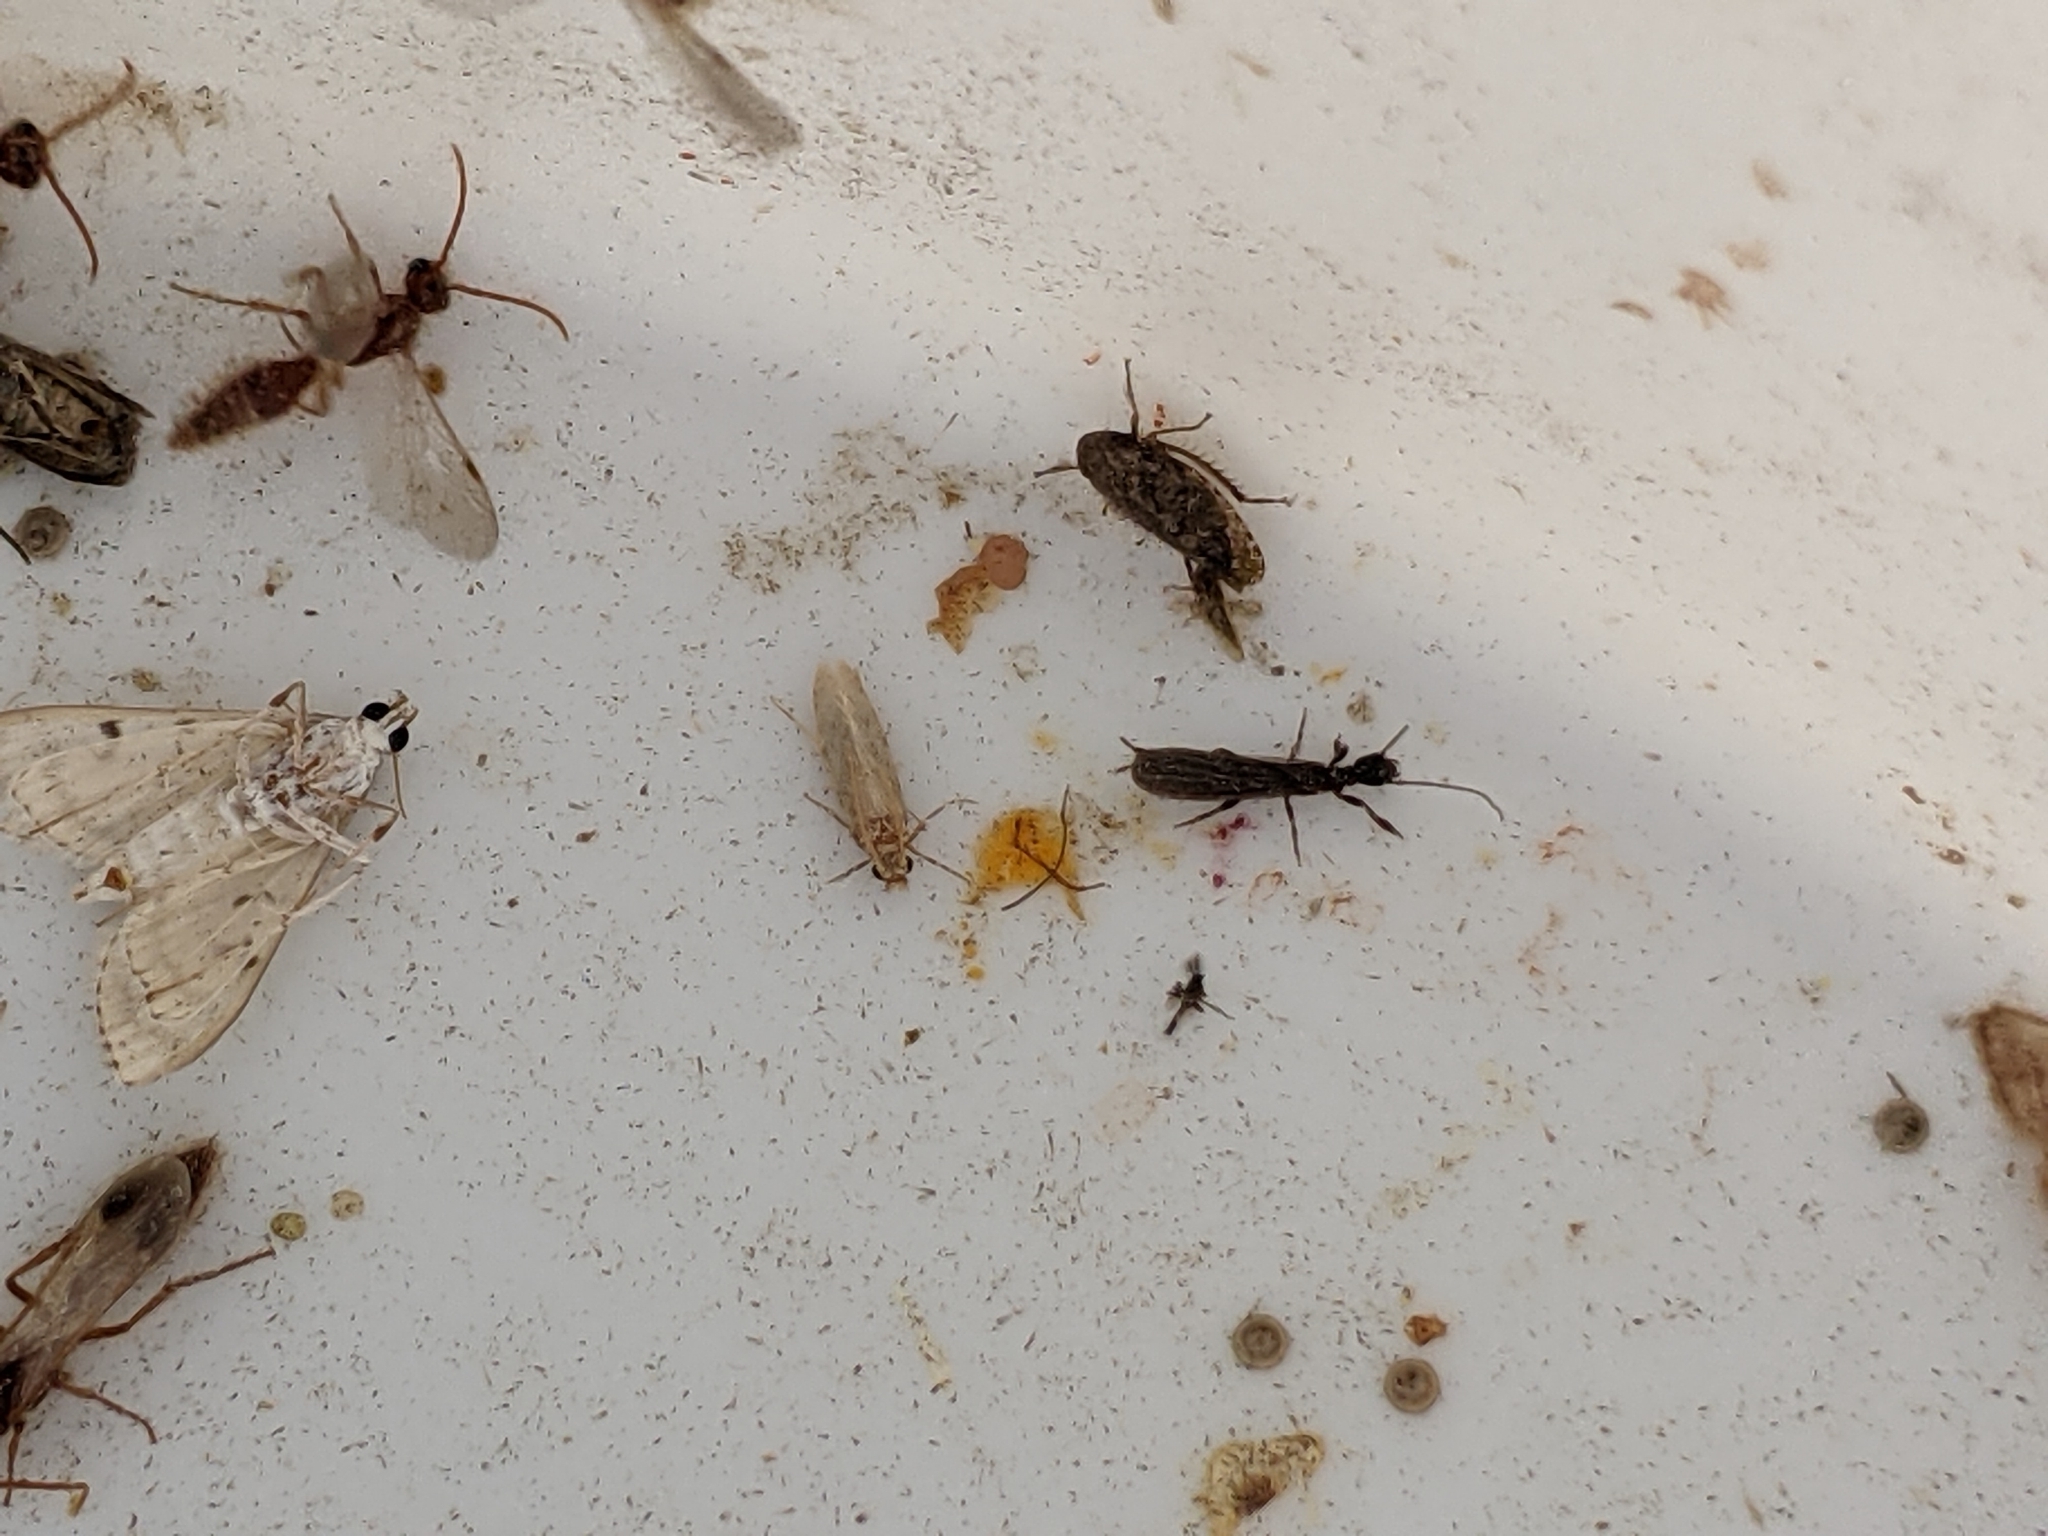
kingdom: Animalia
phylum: Arthropoda
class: Insecta
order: Embioptera
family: Oligotomidae
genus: Oligotoma
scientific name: Oligotoma nigra
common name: Black webspinner
